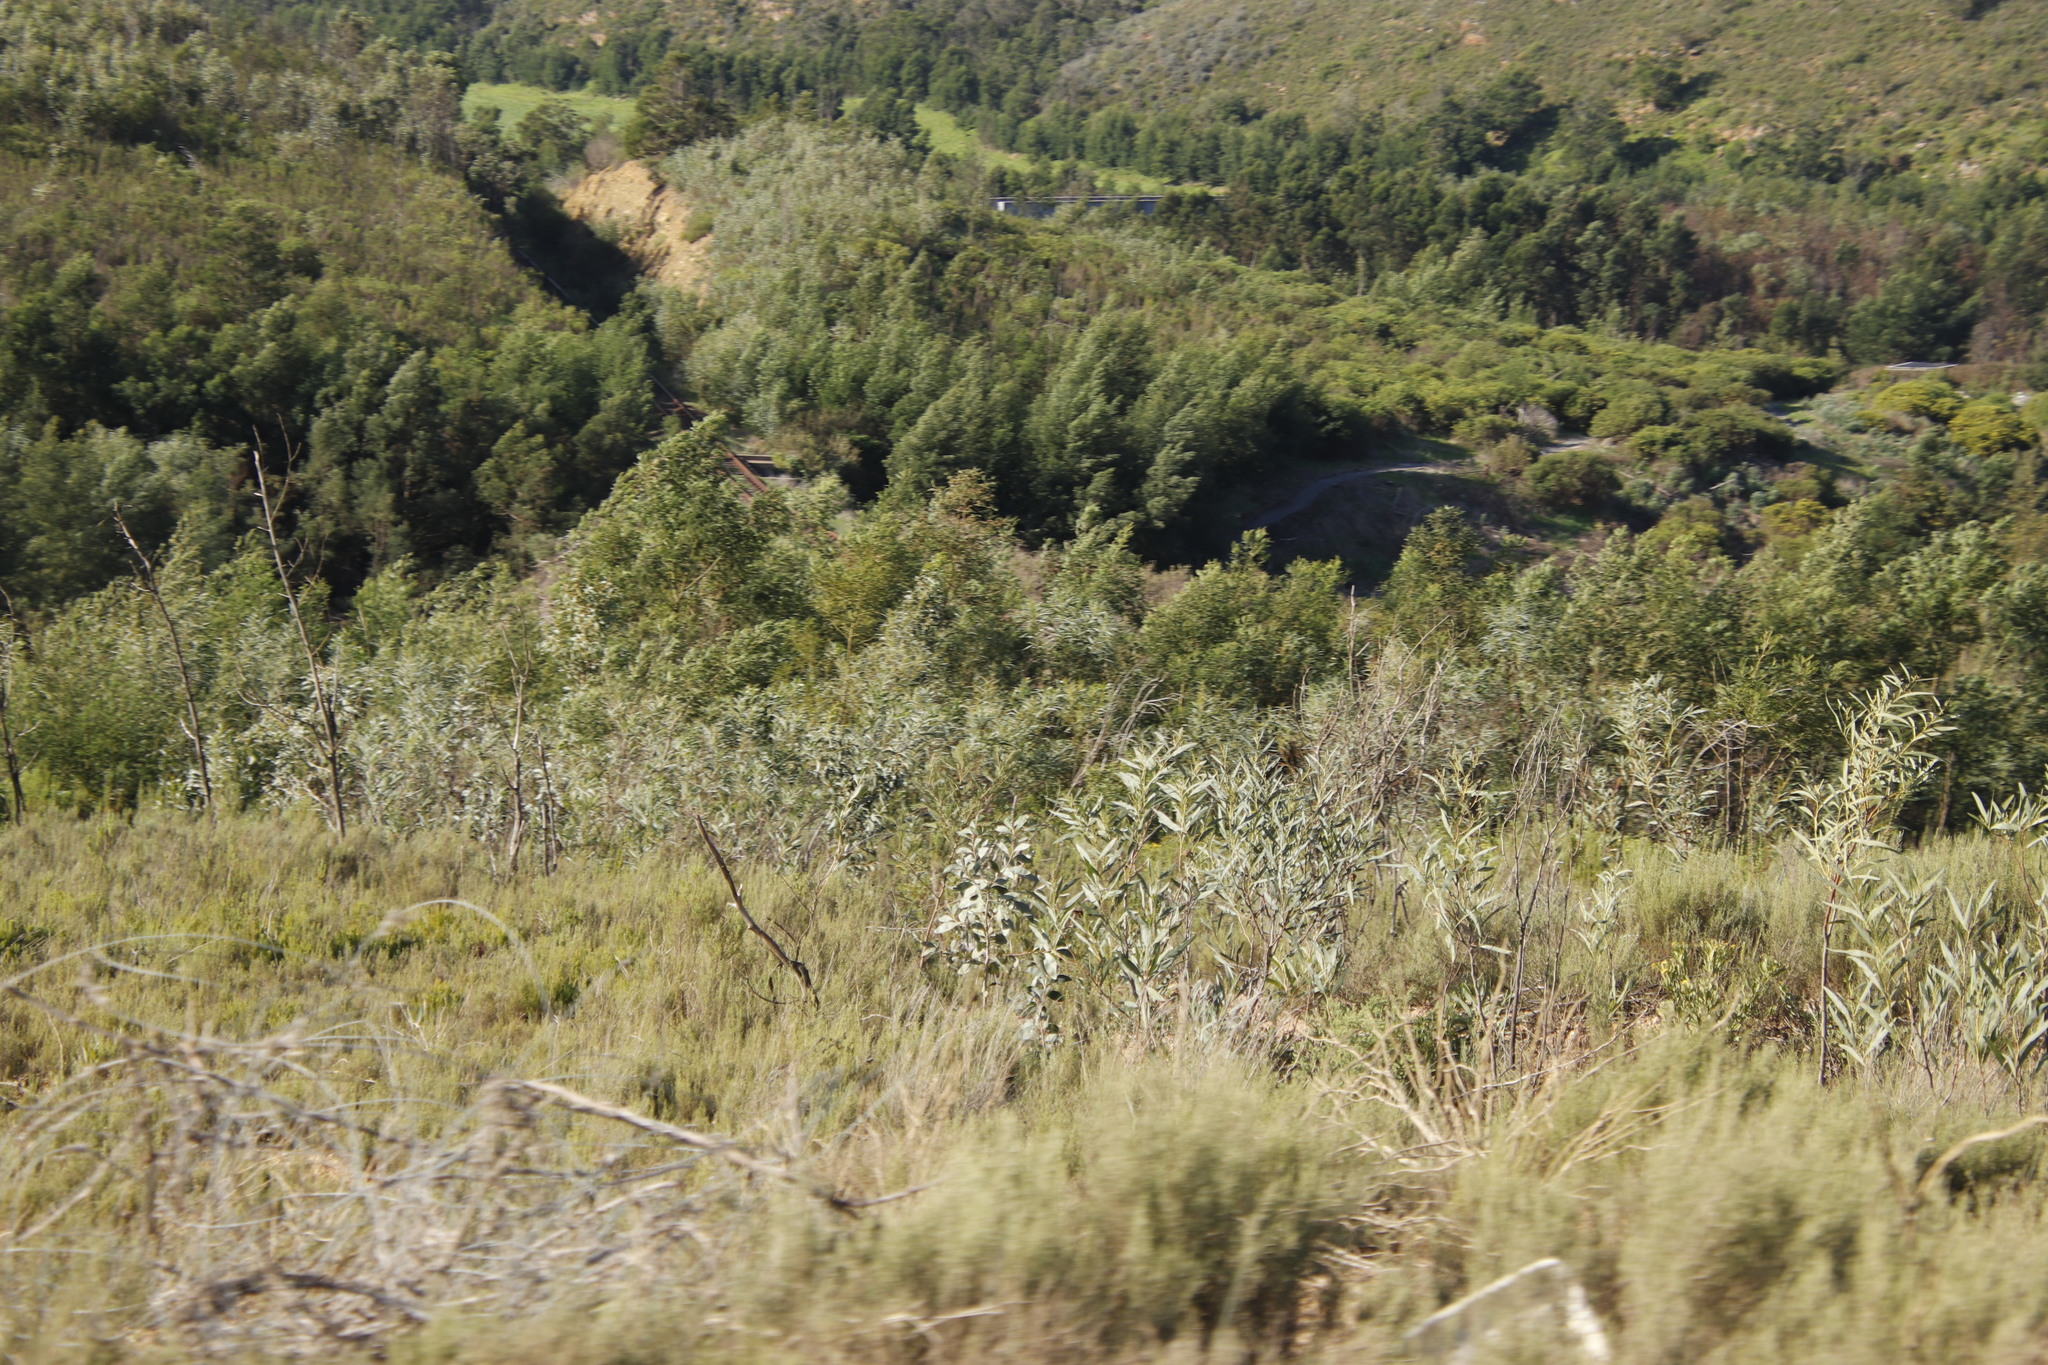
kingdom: Plantae
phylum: Tracheophyta
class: Magnoliopsida
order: Fabales
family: Fabaceae
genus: Acacia
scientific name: Acacia saligna
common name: Orange wattle
